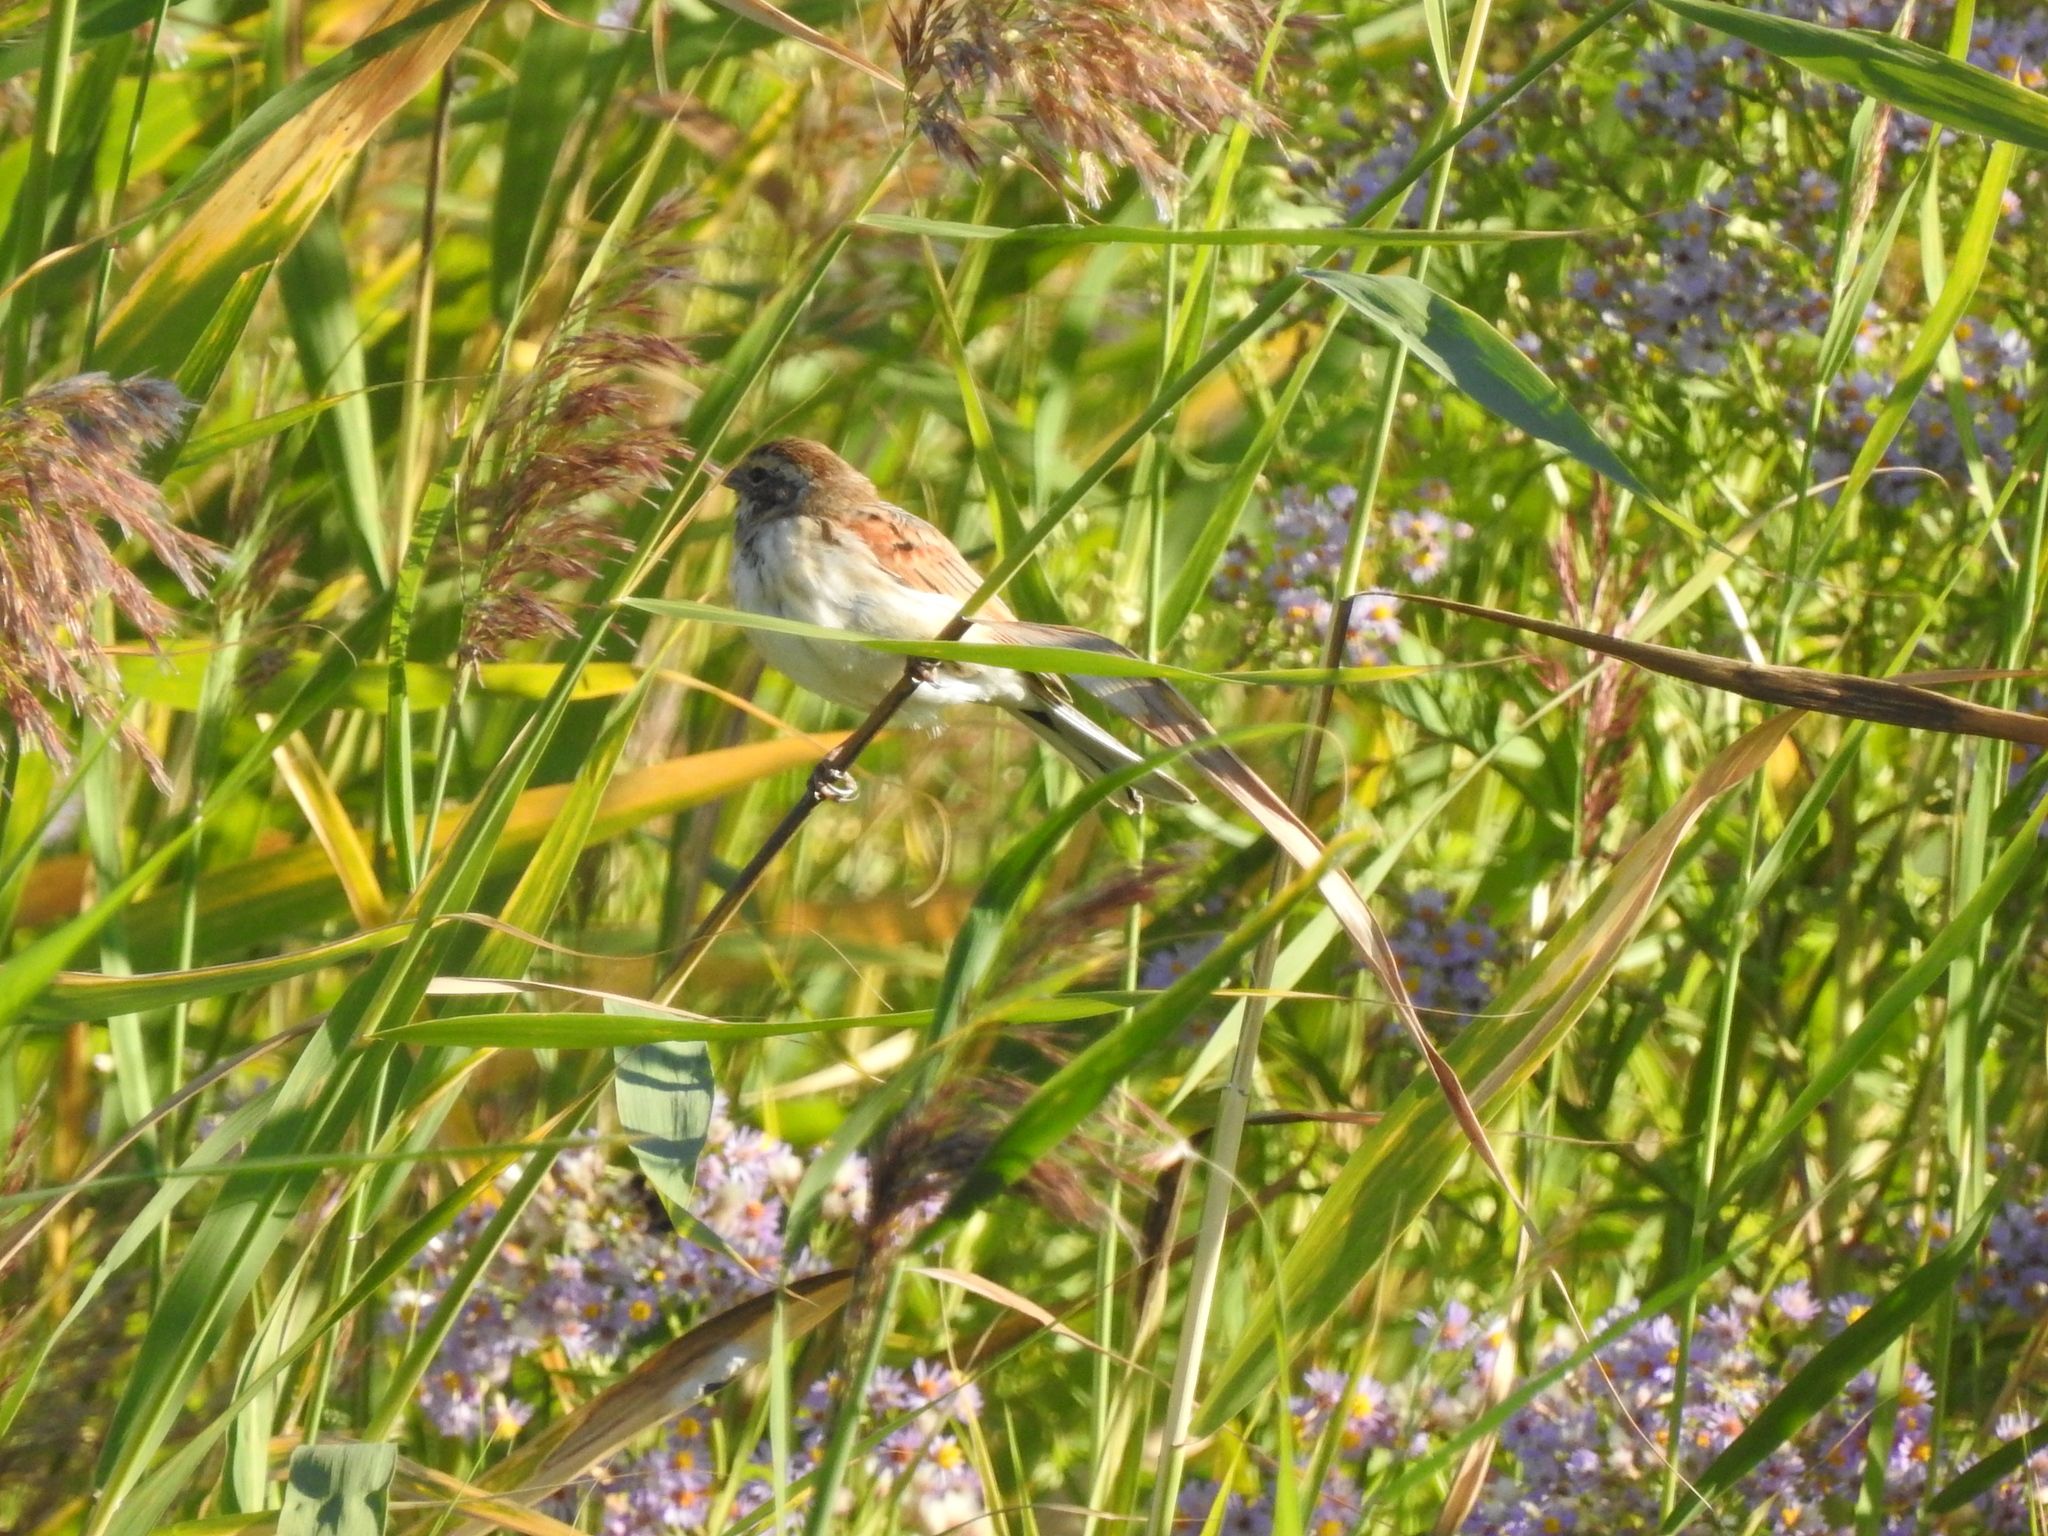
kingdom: Animalia
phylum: Chordata
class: Aves
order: Passeriformes
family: Emberizidae
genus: Emberiza
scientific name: Emberiza schoeniclus
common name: Reed bunting
